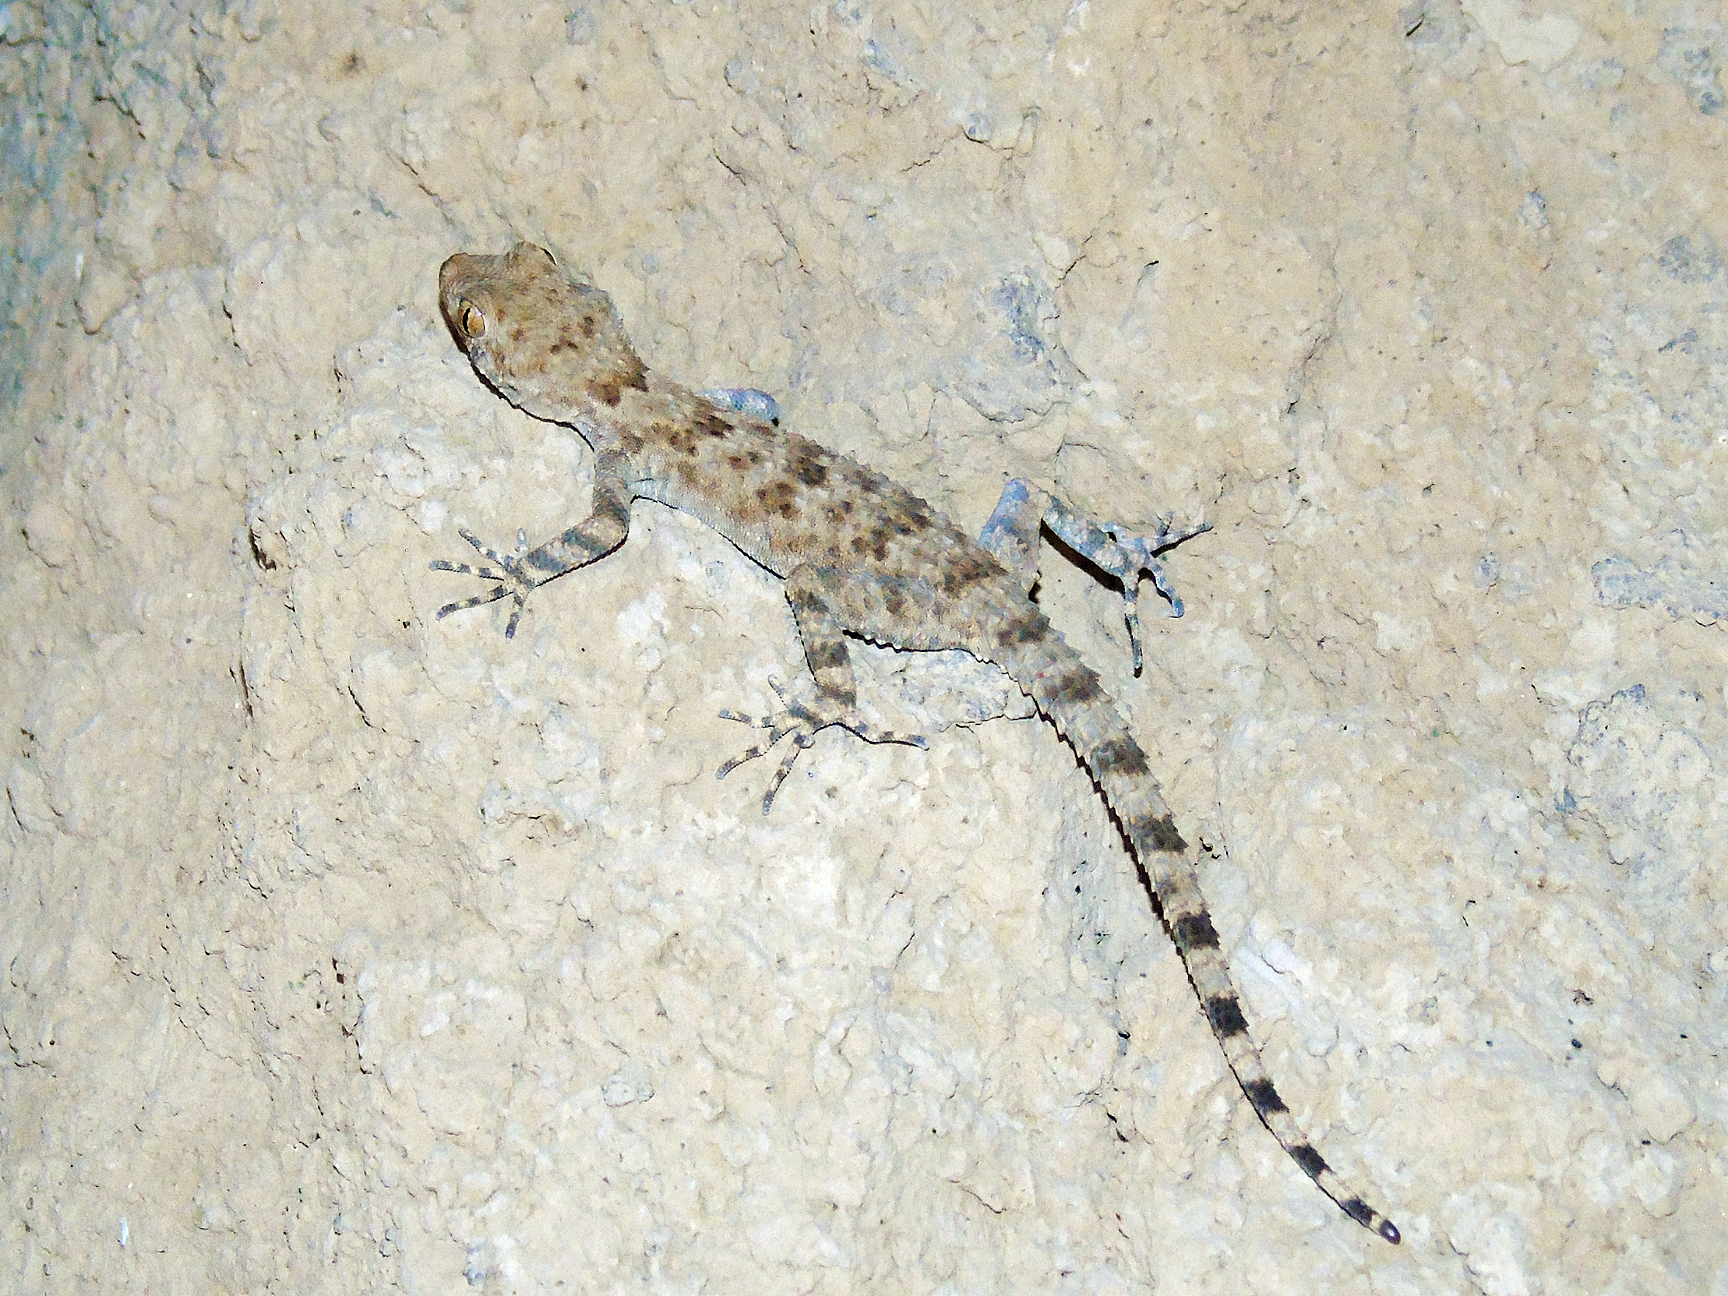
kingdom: Animalia
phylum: Chordata
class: Squamata
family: Gekkonidae
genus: Tenuidactylus
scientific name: Tenuidactylus fedtschenkoi
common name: Turkestan thin-toed gecko
